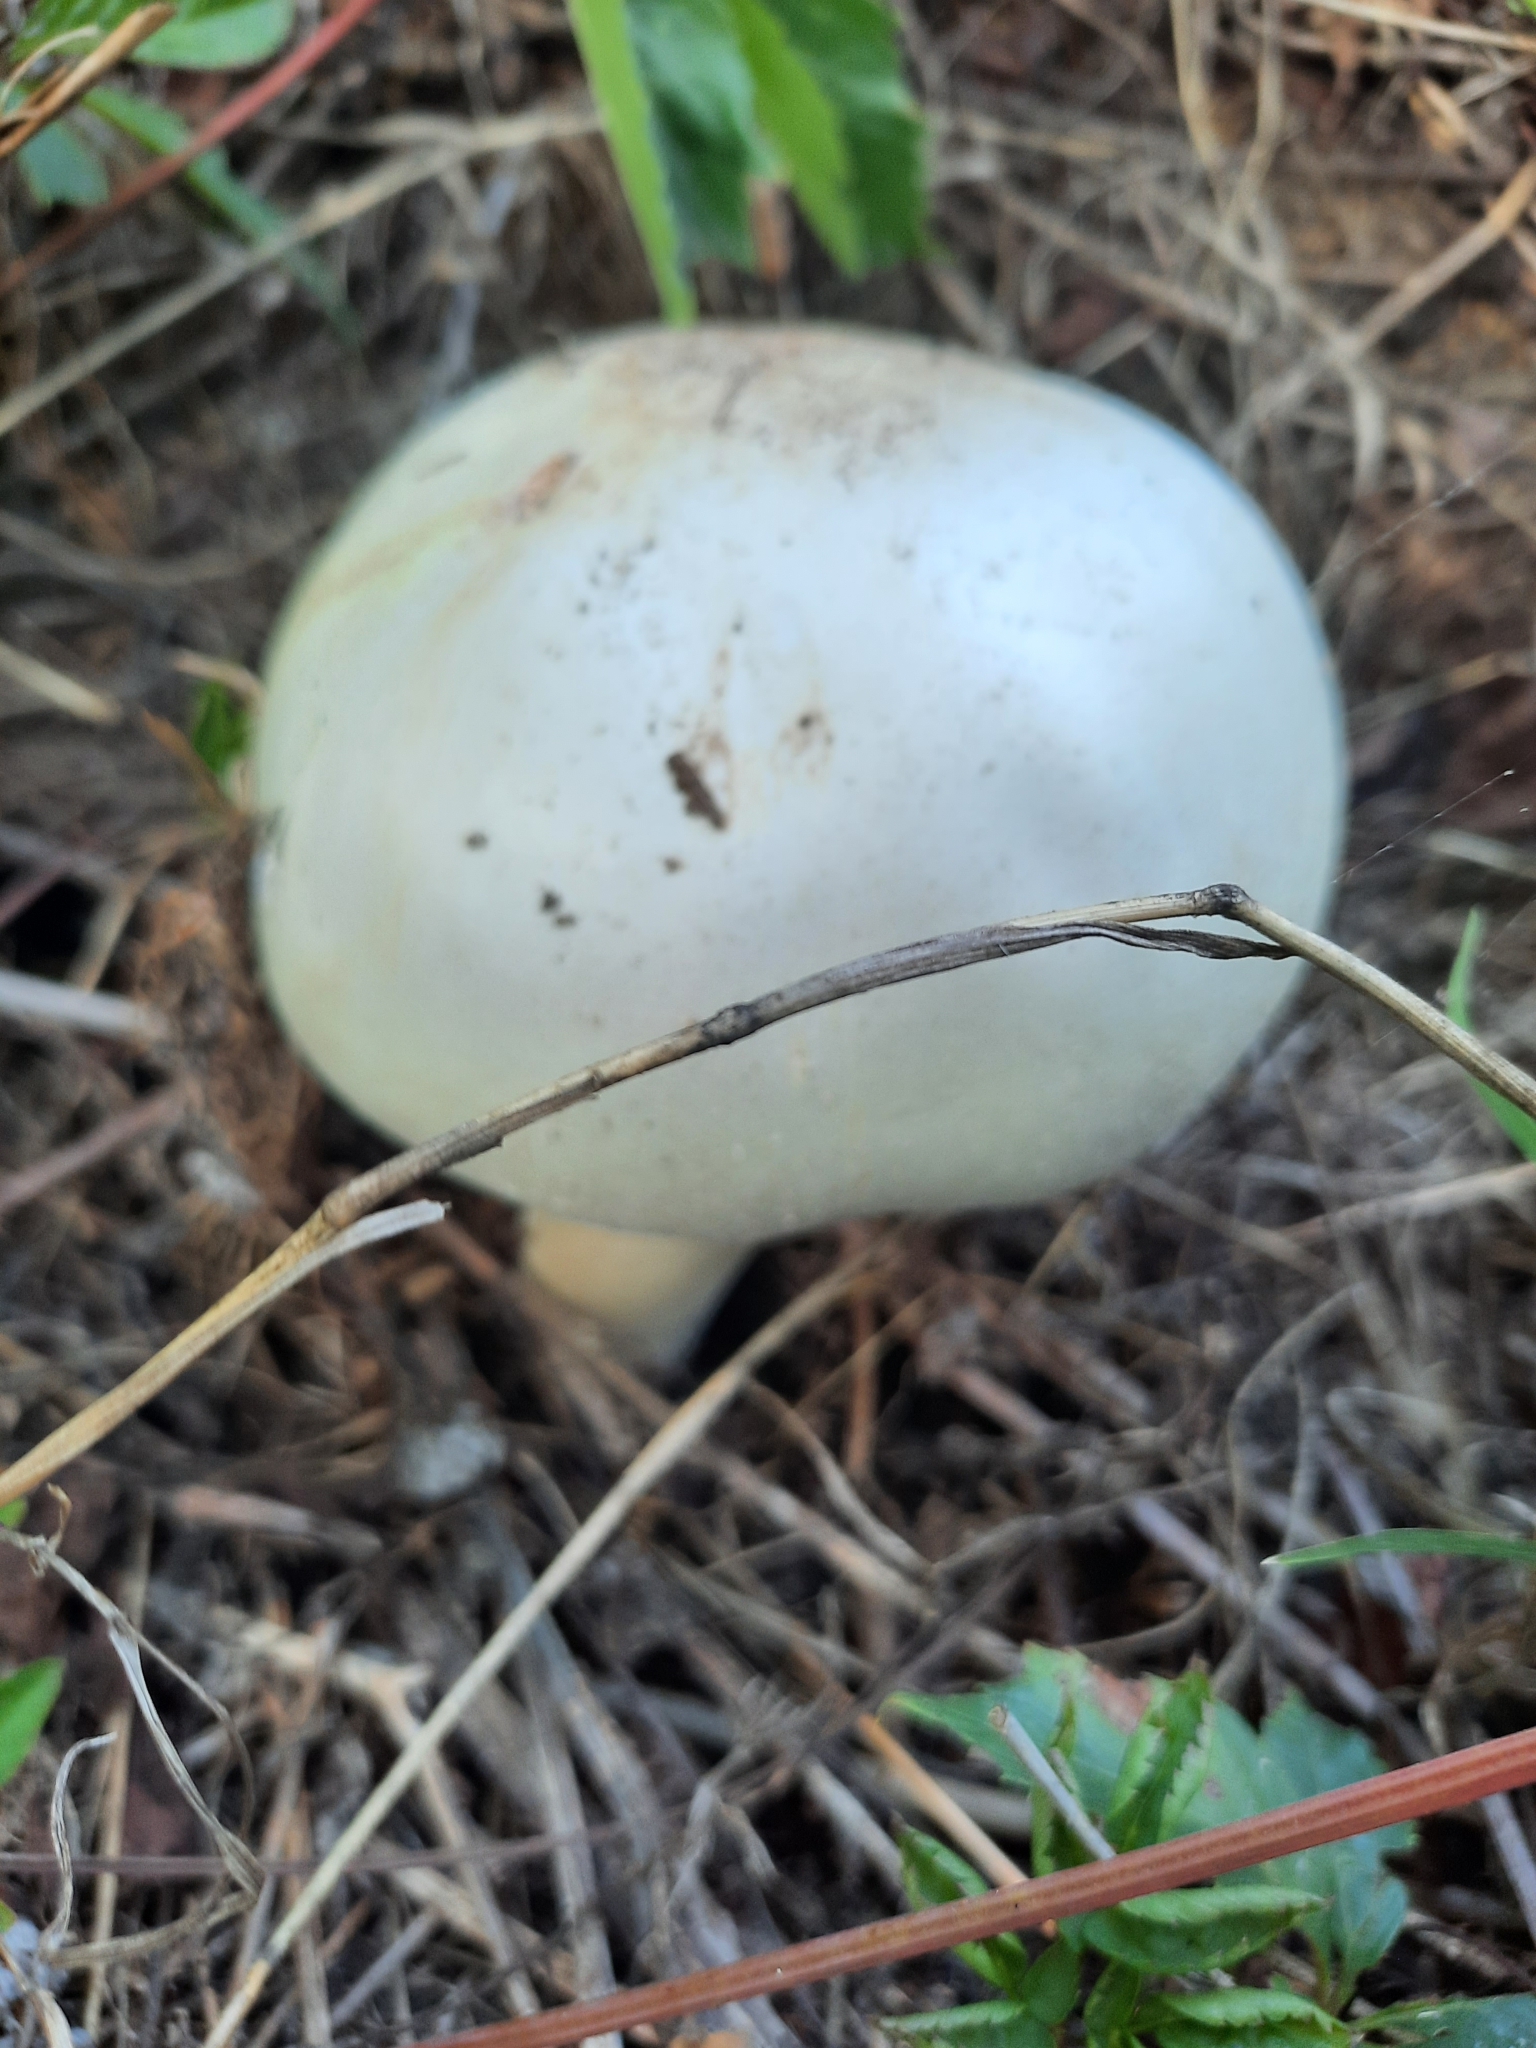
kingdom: Fungi
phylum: Basidiomycota
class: Agaricomycetes
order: Agaricales
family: Agaricaceae
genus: Agaricus
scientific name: Agaricus campestris
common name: Field mushroom
